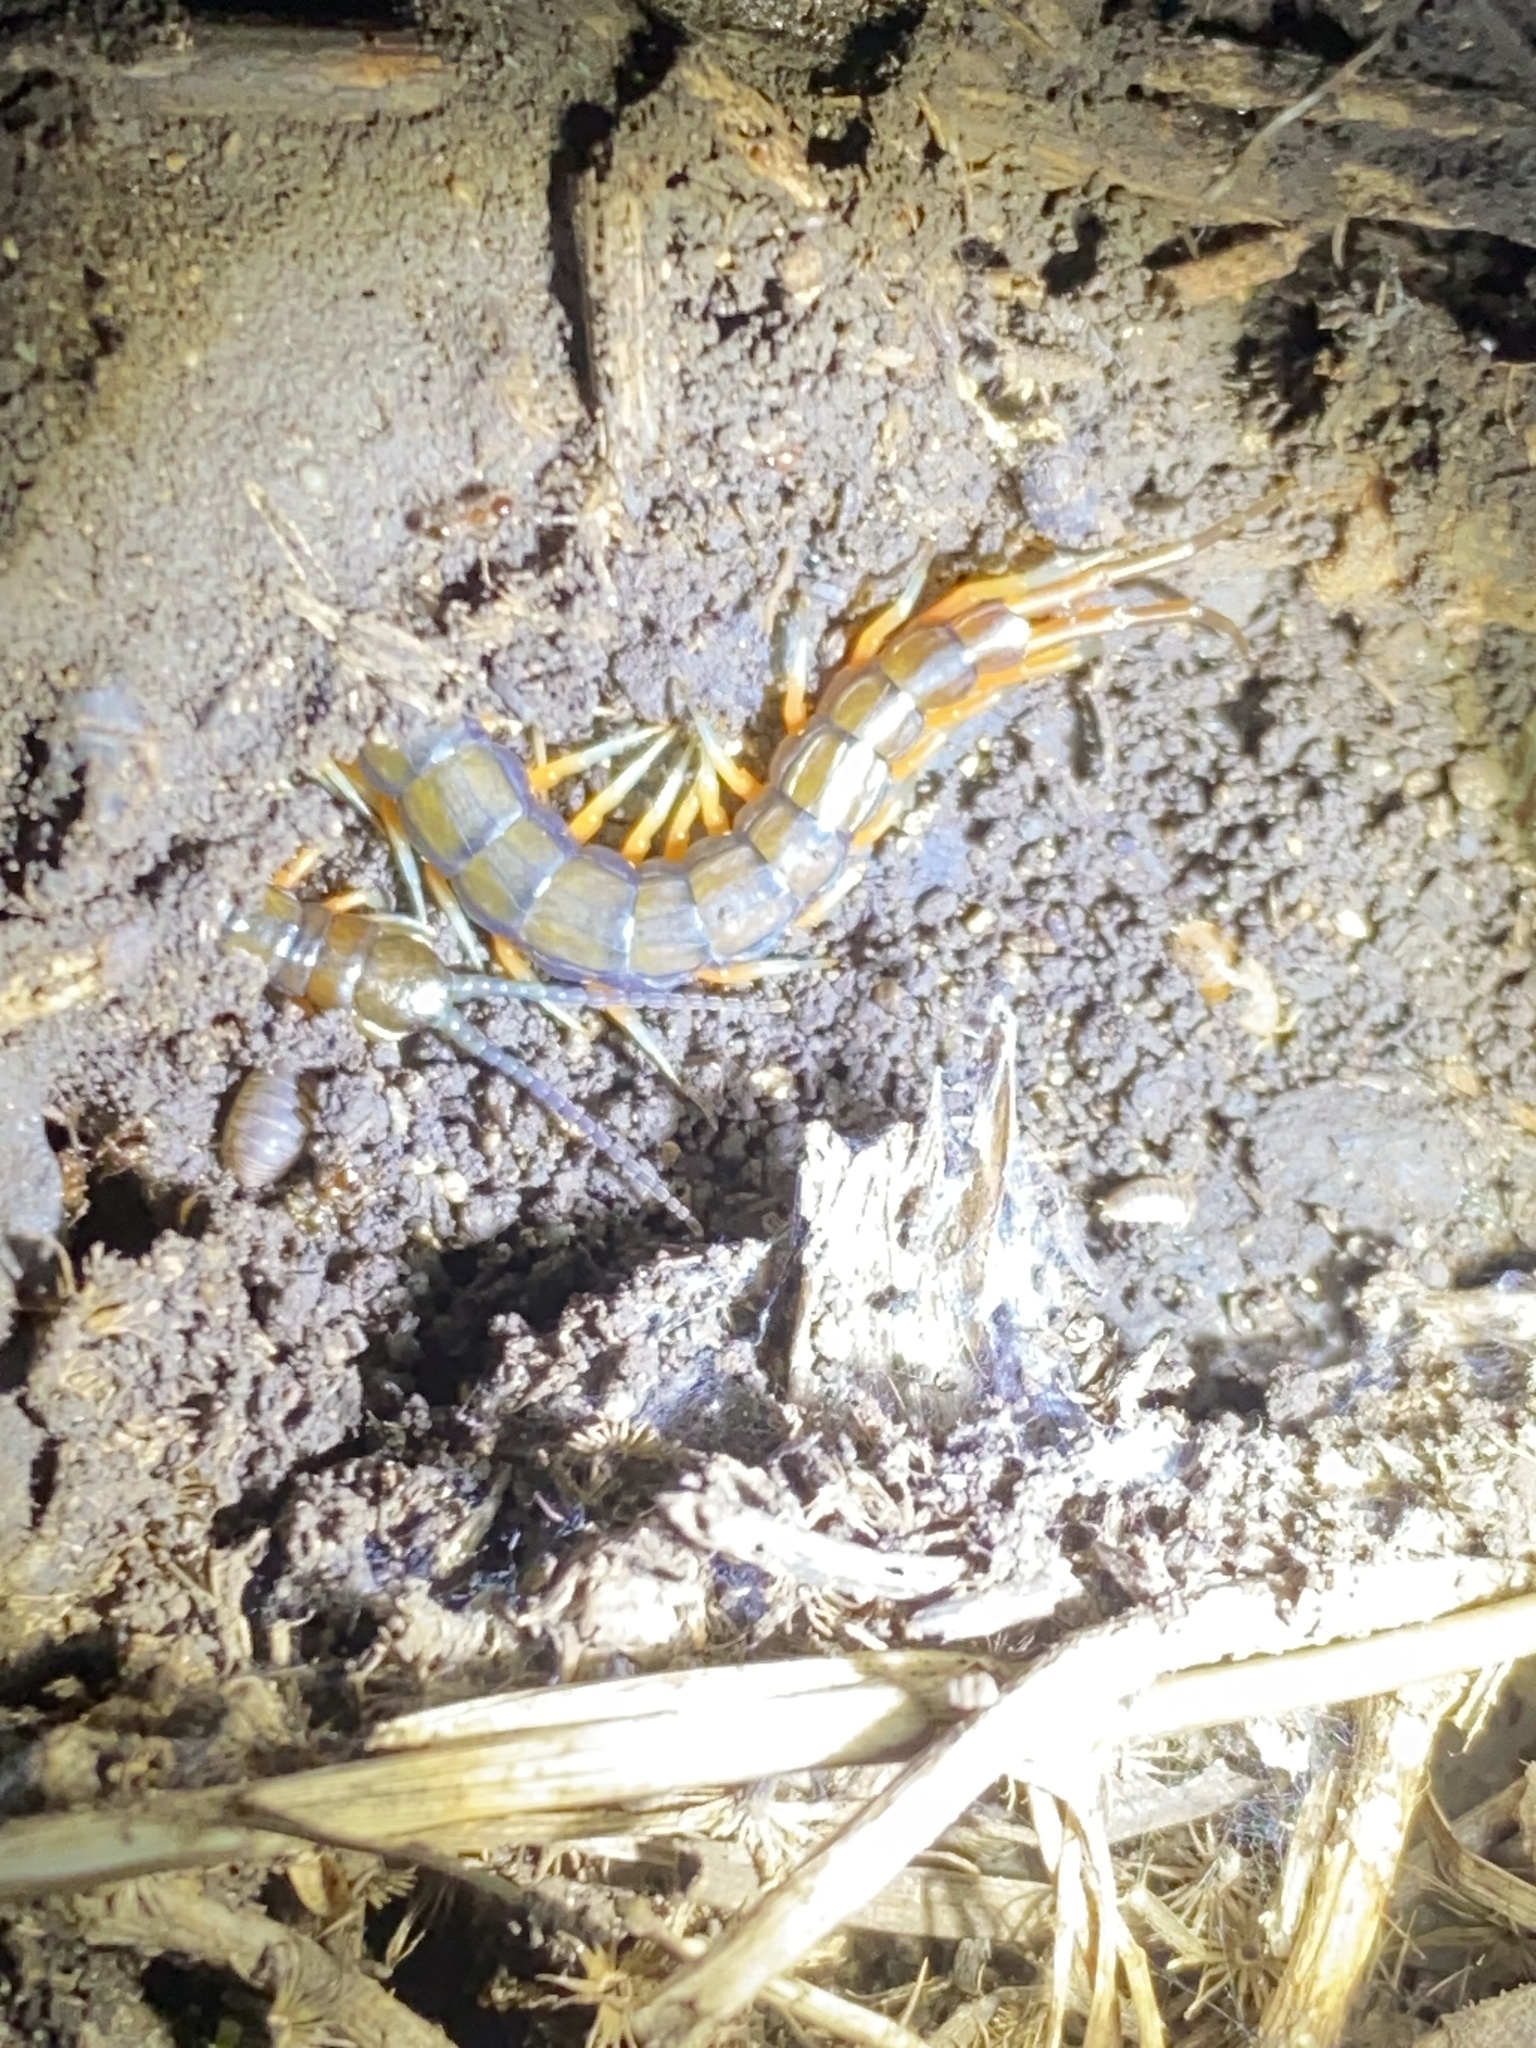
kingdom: Animalia
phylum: Arthropoda
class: Chilopoda
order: Scolopendromorpha
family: Scolopendridae
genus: Scolopendra
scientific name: Scolopendra subspinipes
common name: Centipede
